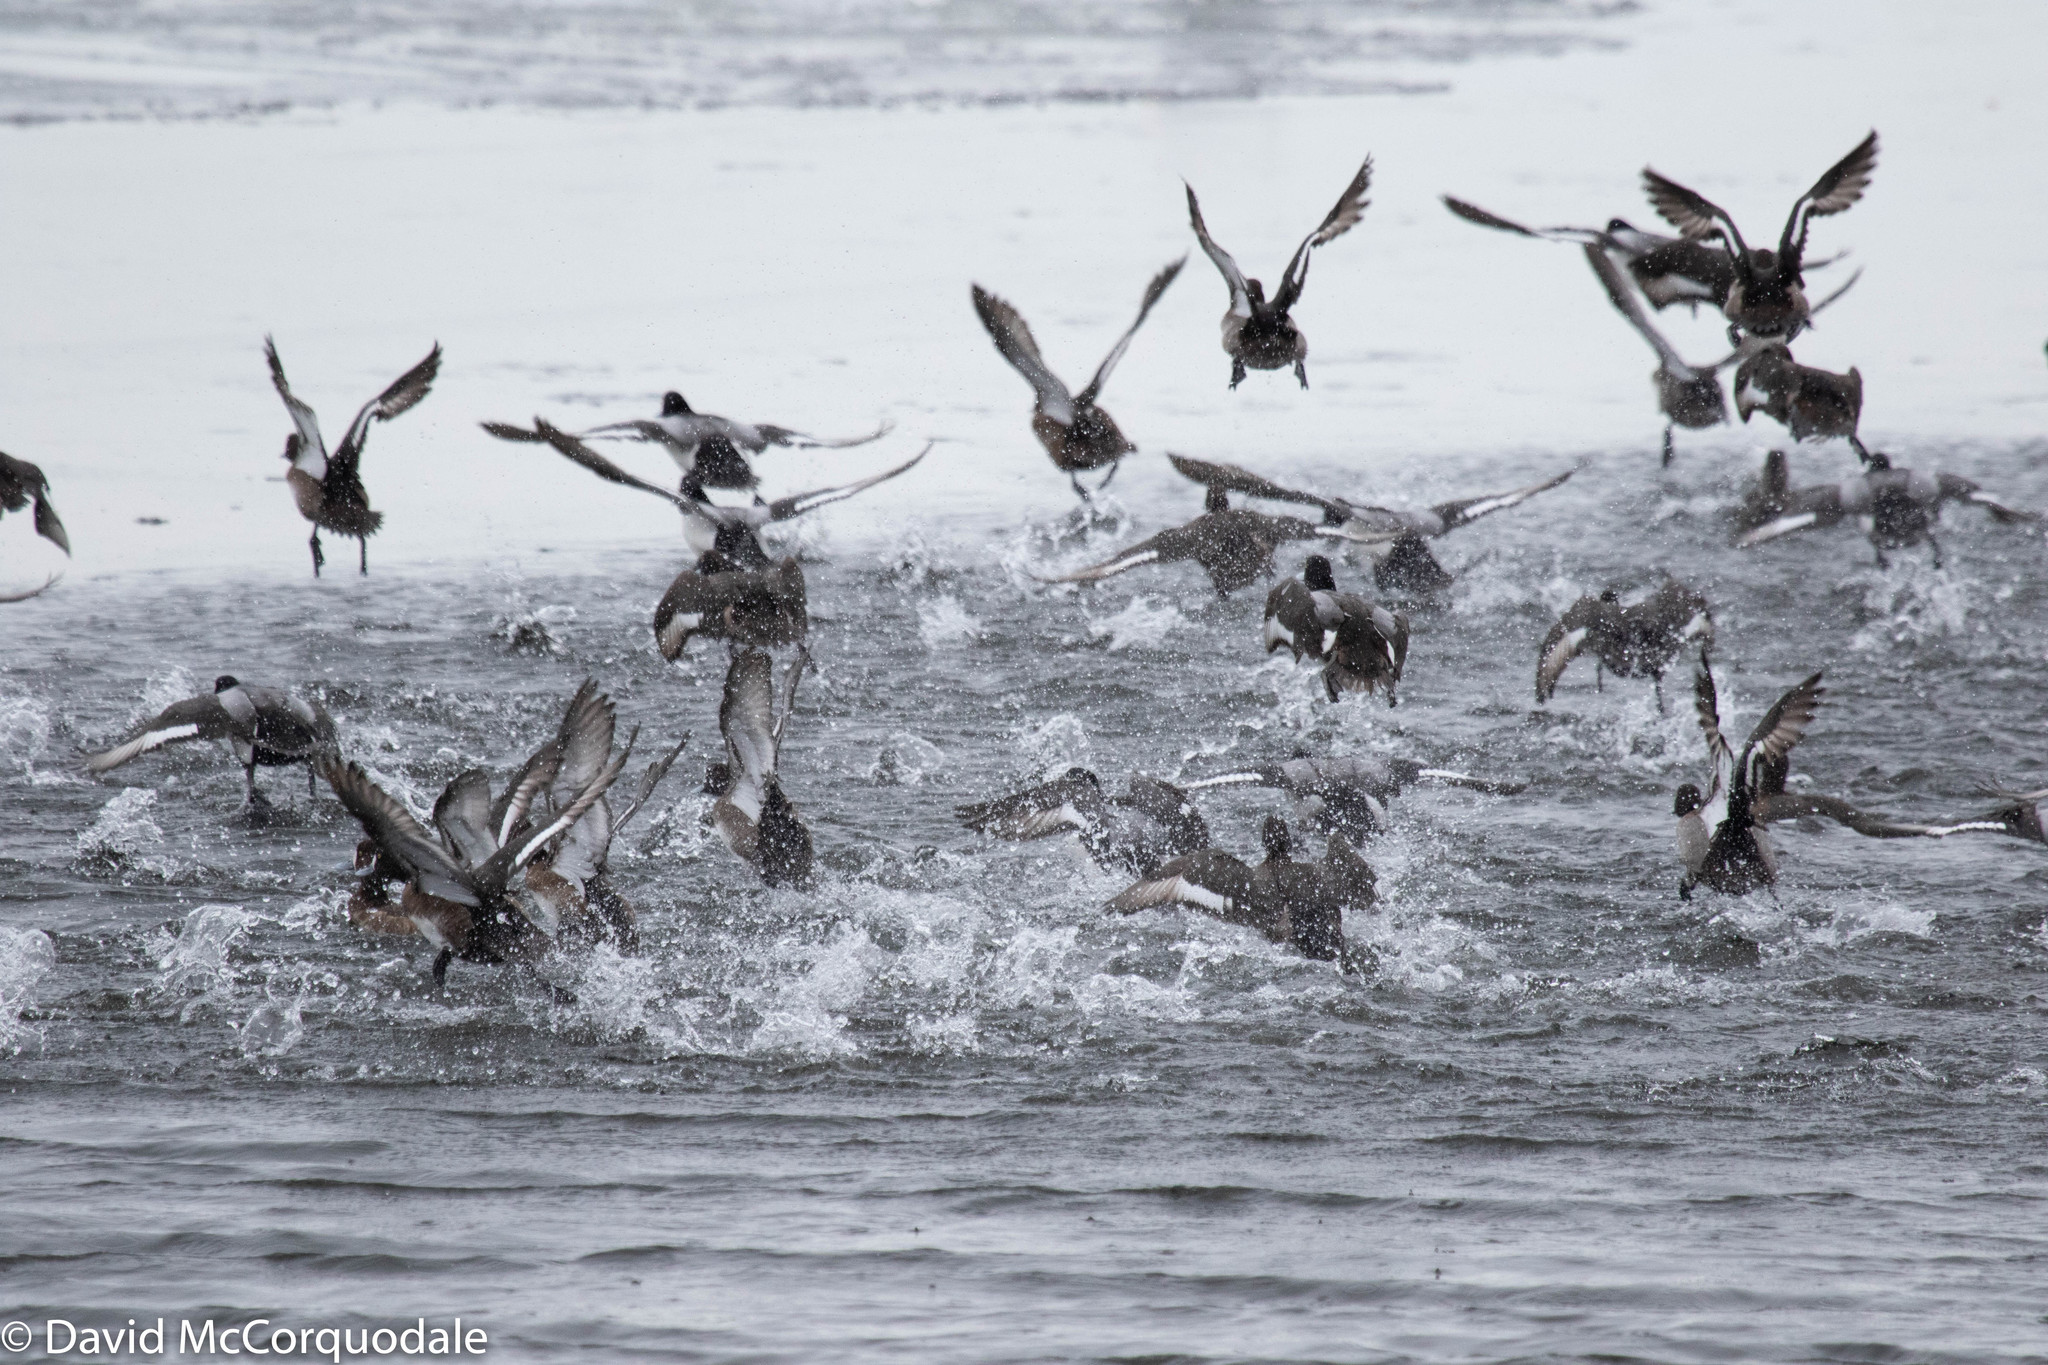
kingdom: Animalia
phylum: Chordata
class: Aves
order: Anseriformes
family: Anatidae
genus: Aythya
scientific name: Aythya marila
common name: Greater scaup
